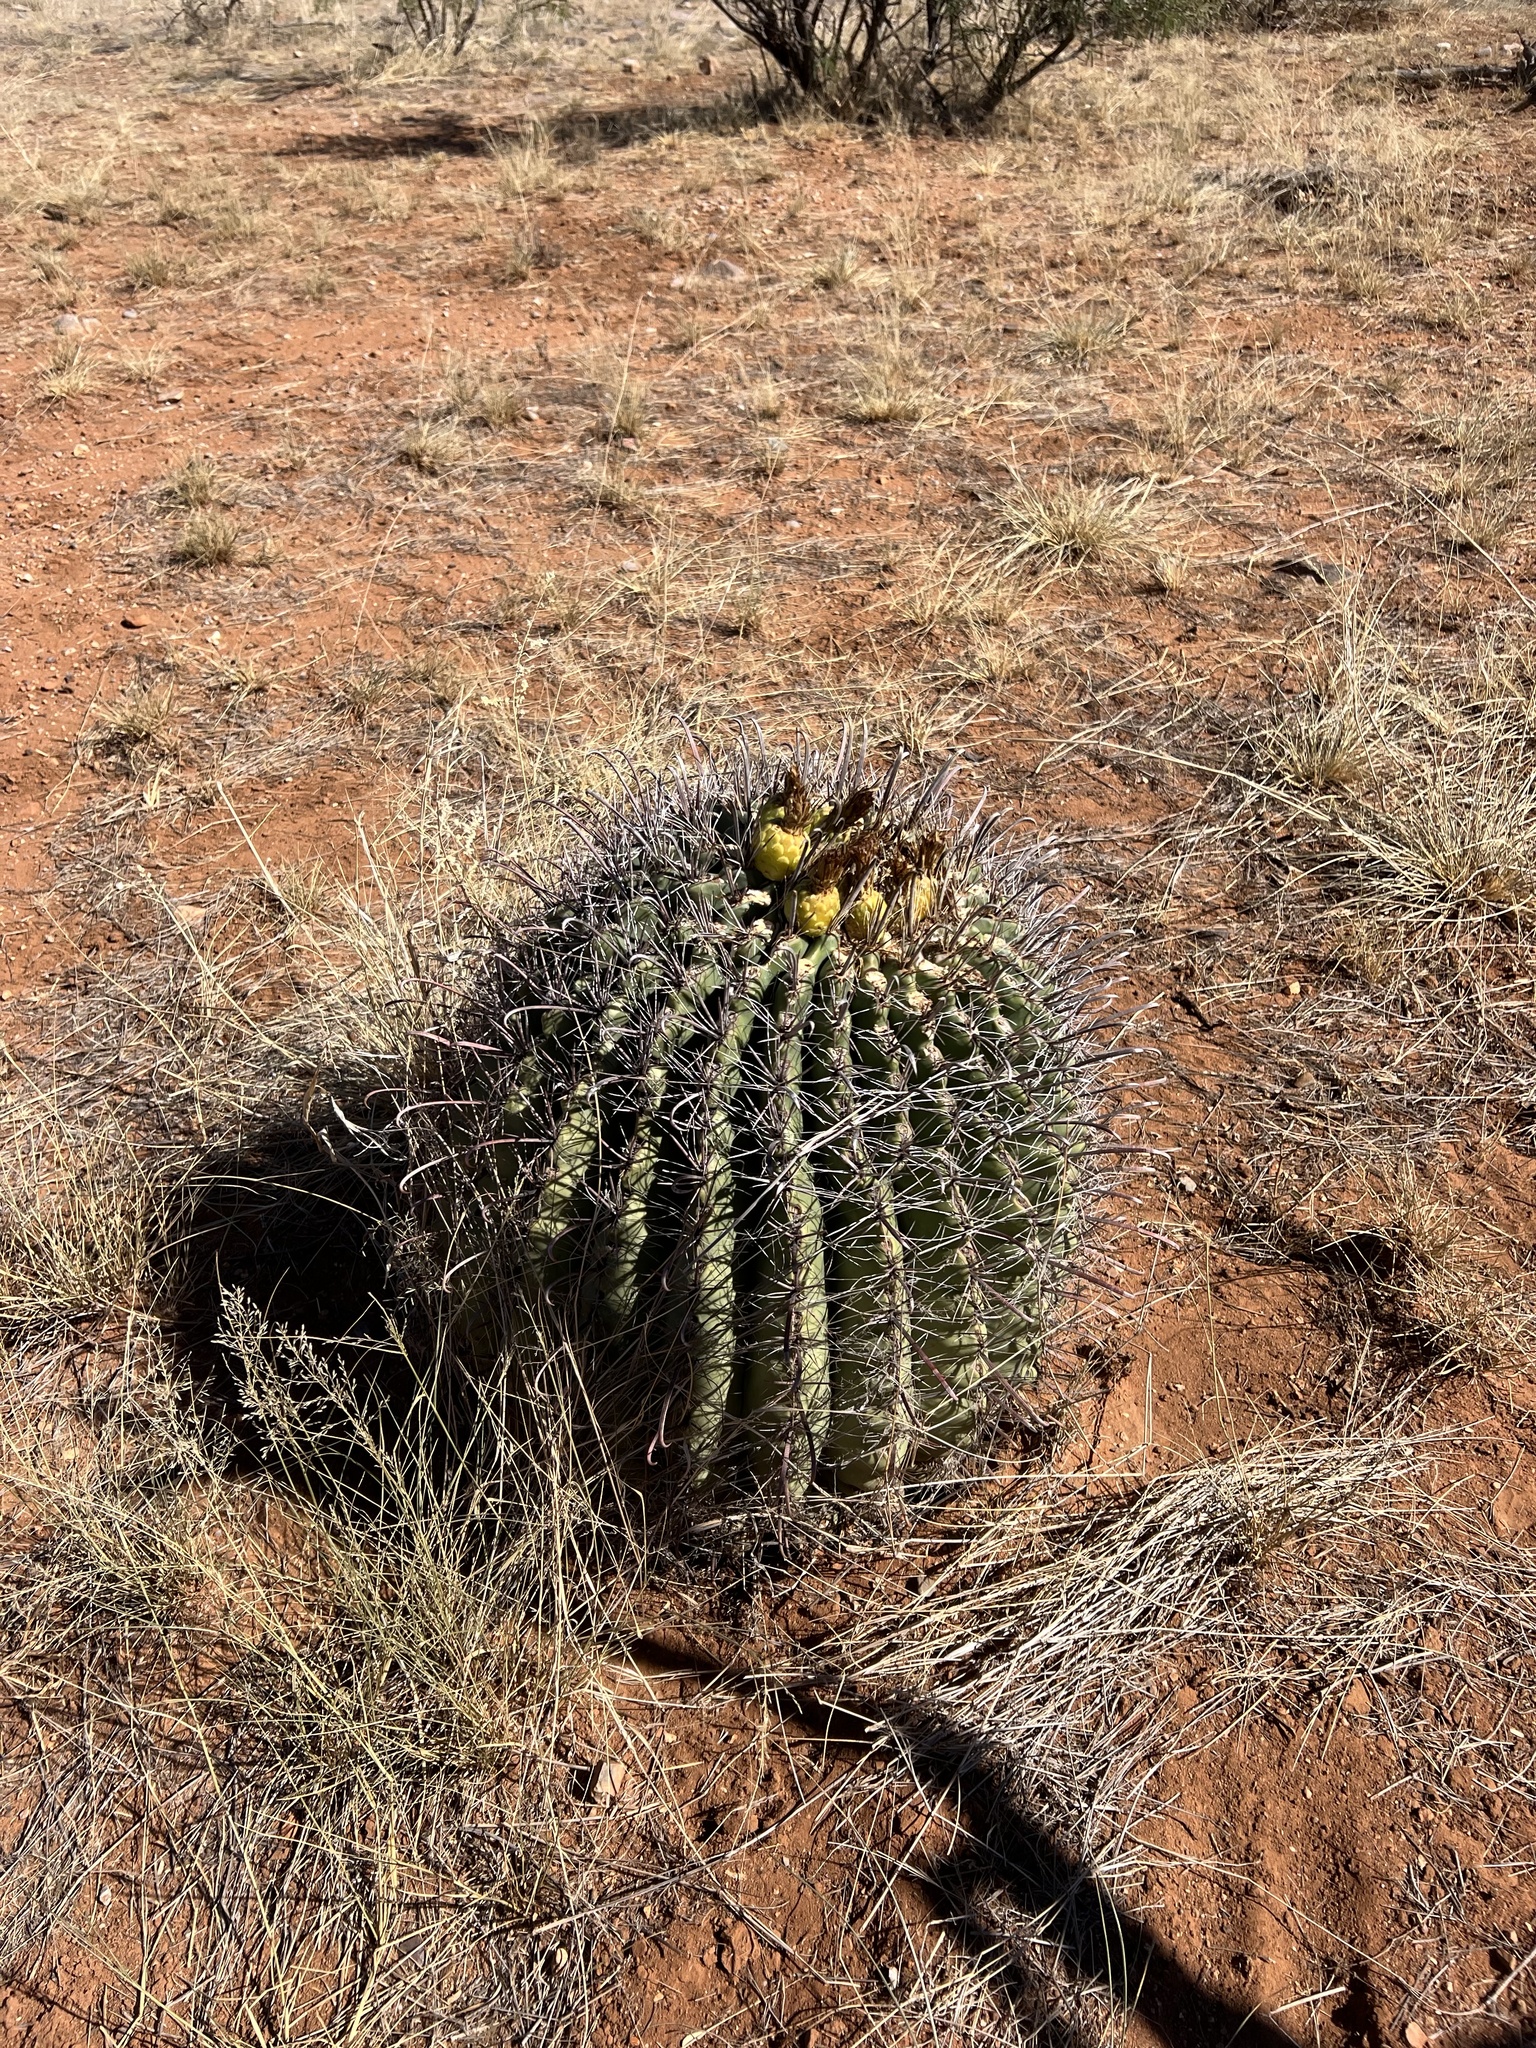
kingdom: Plantae
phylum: Tracheophyta
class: Magnoliopsida
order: Caryophyllales
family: Cactaceae
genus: Ferocactus
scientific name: Ferocactus wislizeni
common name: Candy barrel cactus
